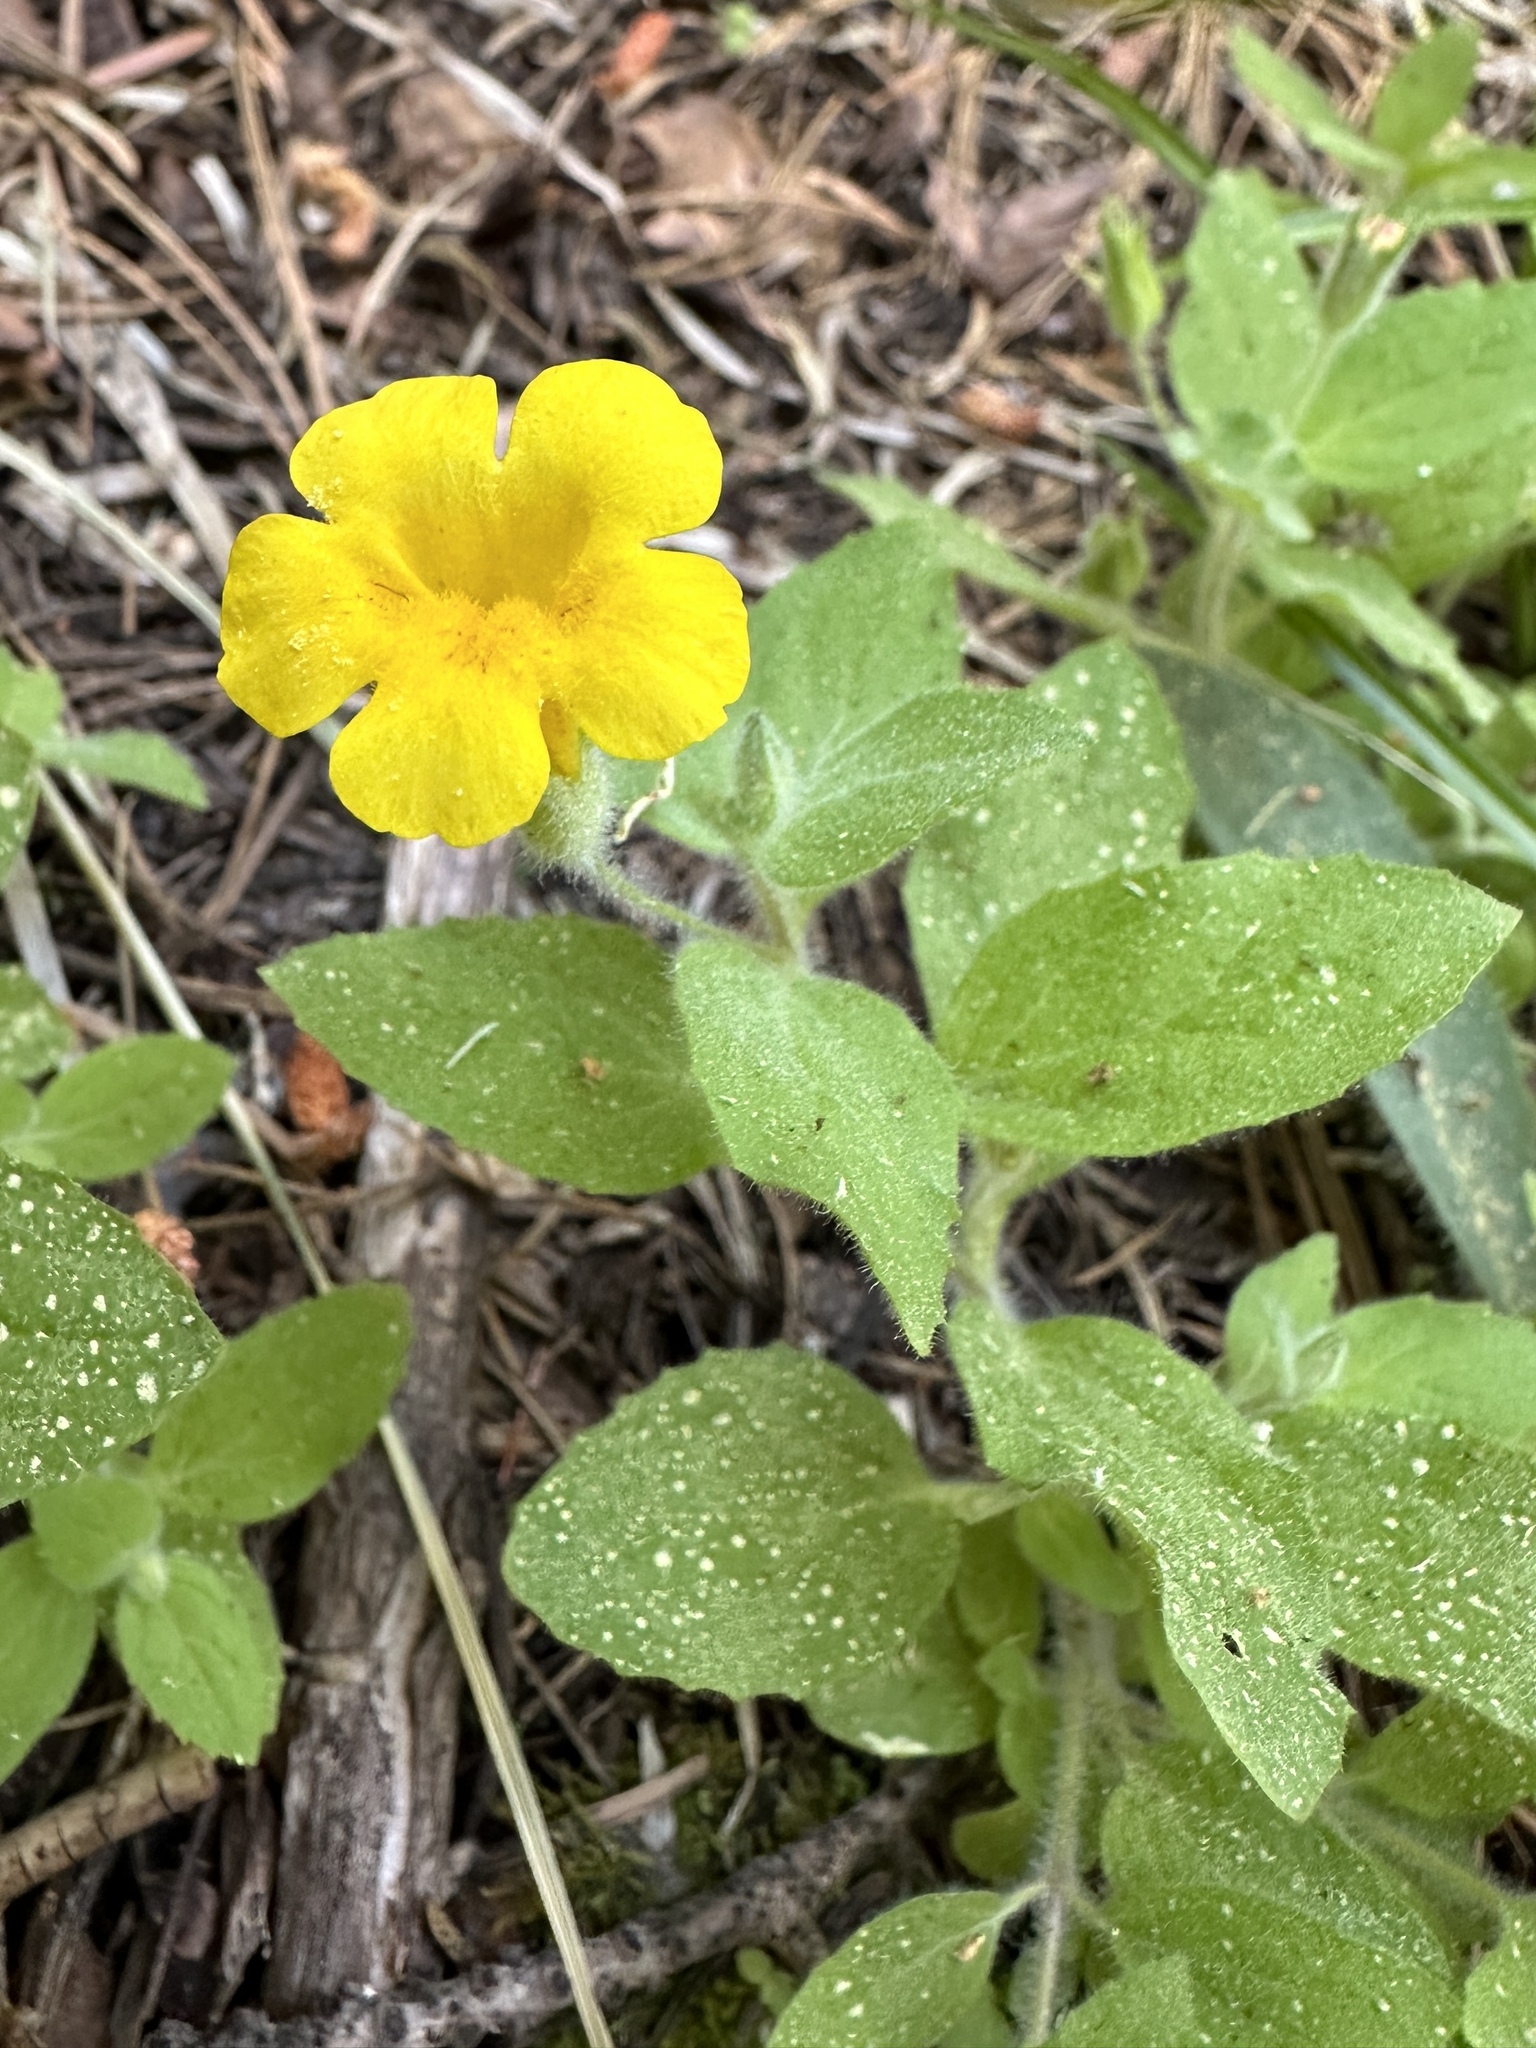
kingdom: Plantae
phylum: Tracheophyta
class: Magnoliopsida
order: Lamiales
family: Phrymaceae
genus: Erythranthe
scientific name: Erythranthe moschata
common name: Muskflower
